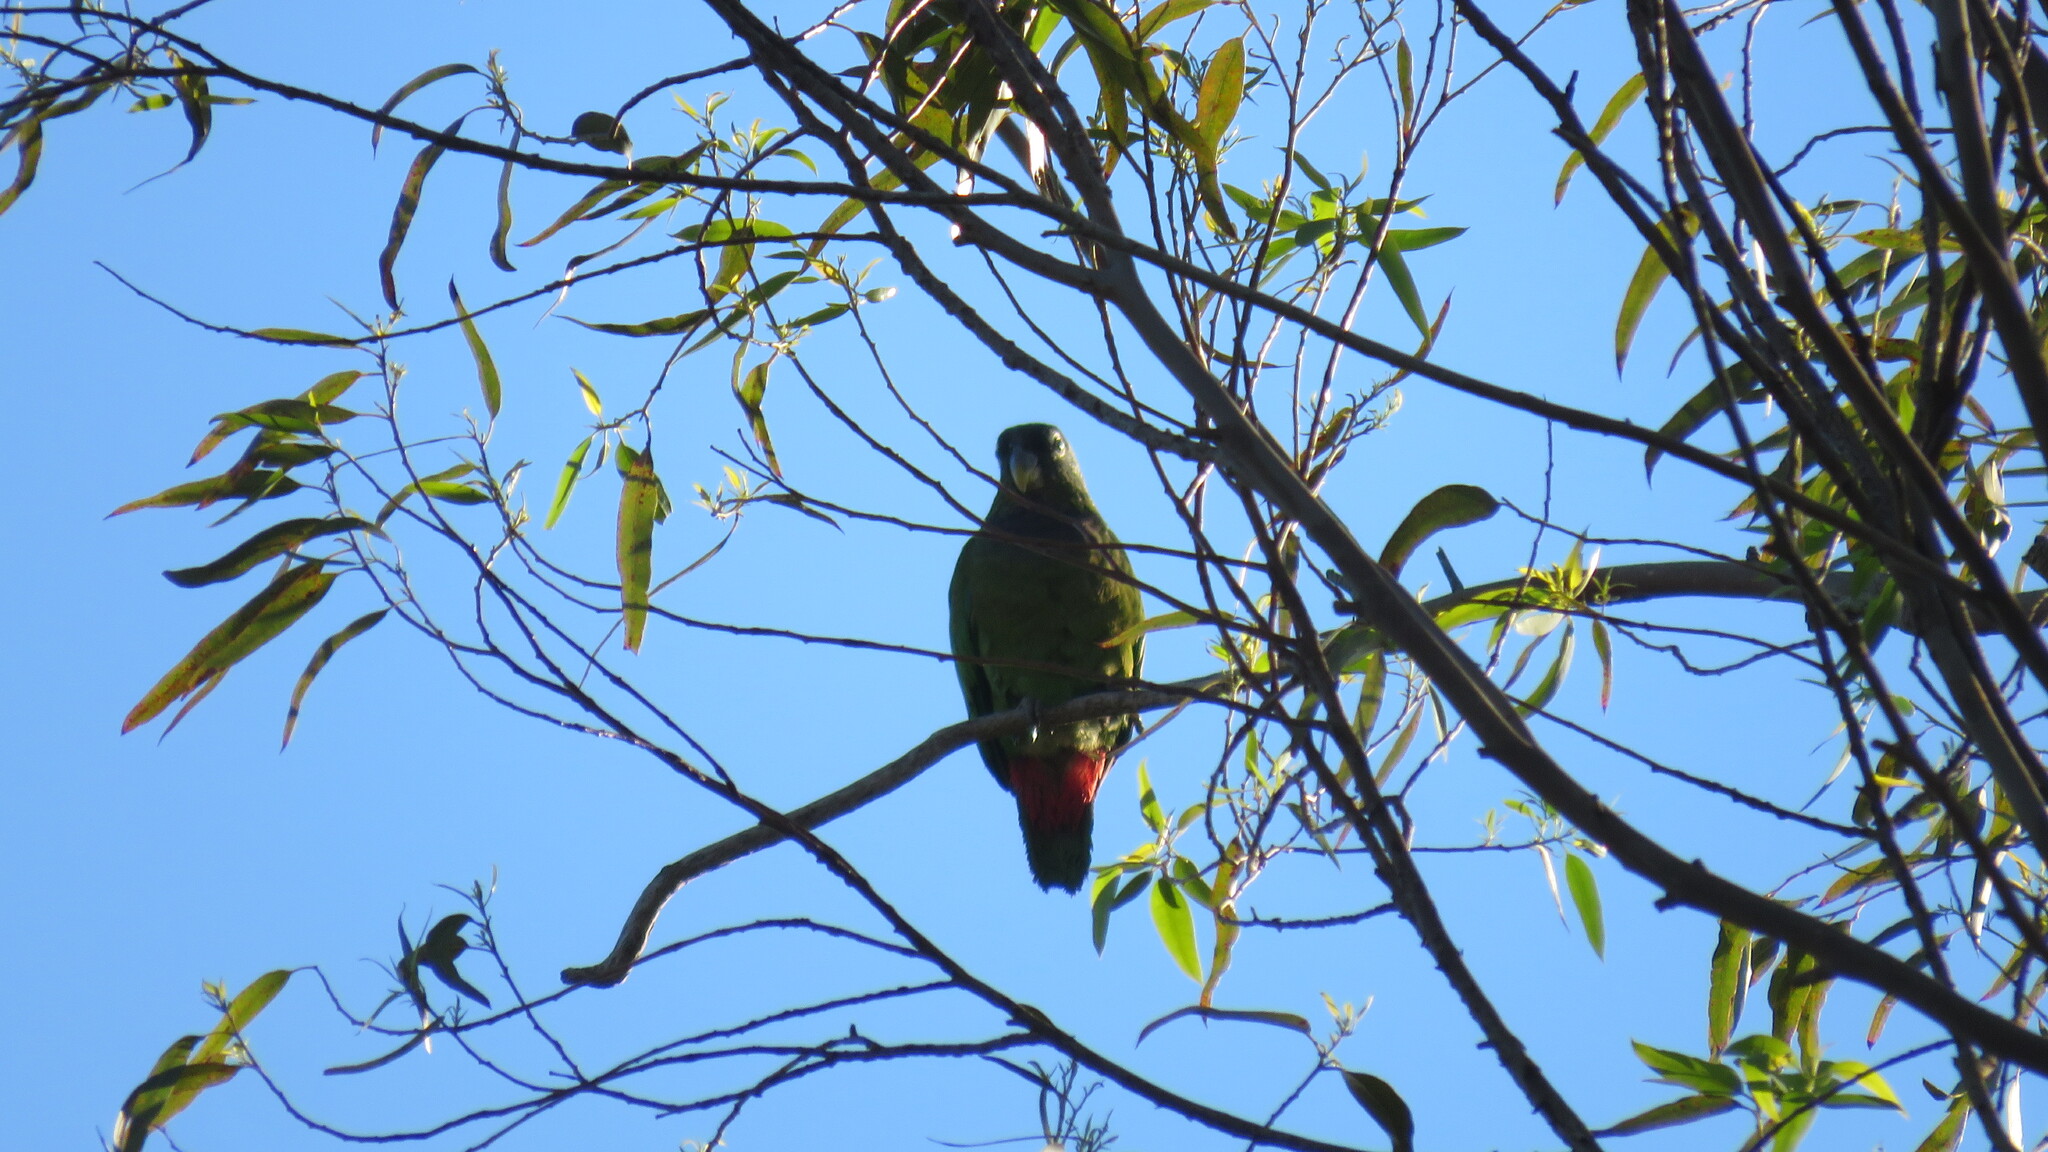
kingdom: Animalia
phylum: Chordata
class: Aves
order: Psittaciformes
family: Psittacidae
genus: Pionus
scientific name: Pionus maximiliani
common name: Scaly-headed parrot
